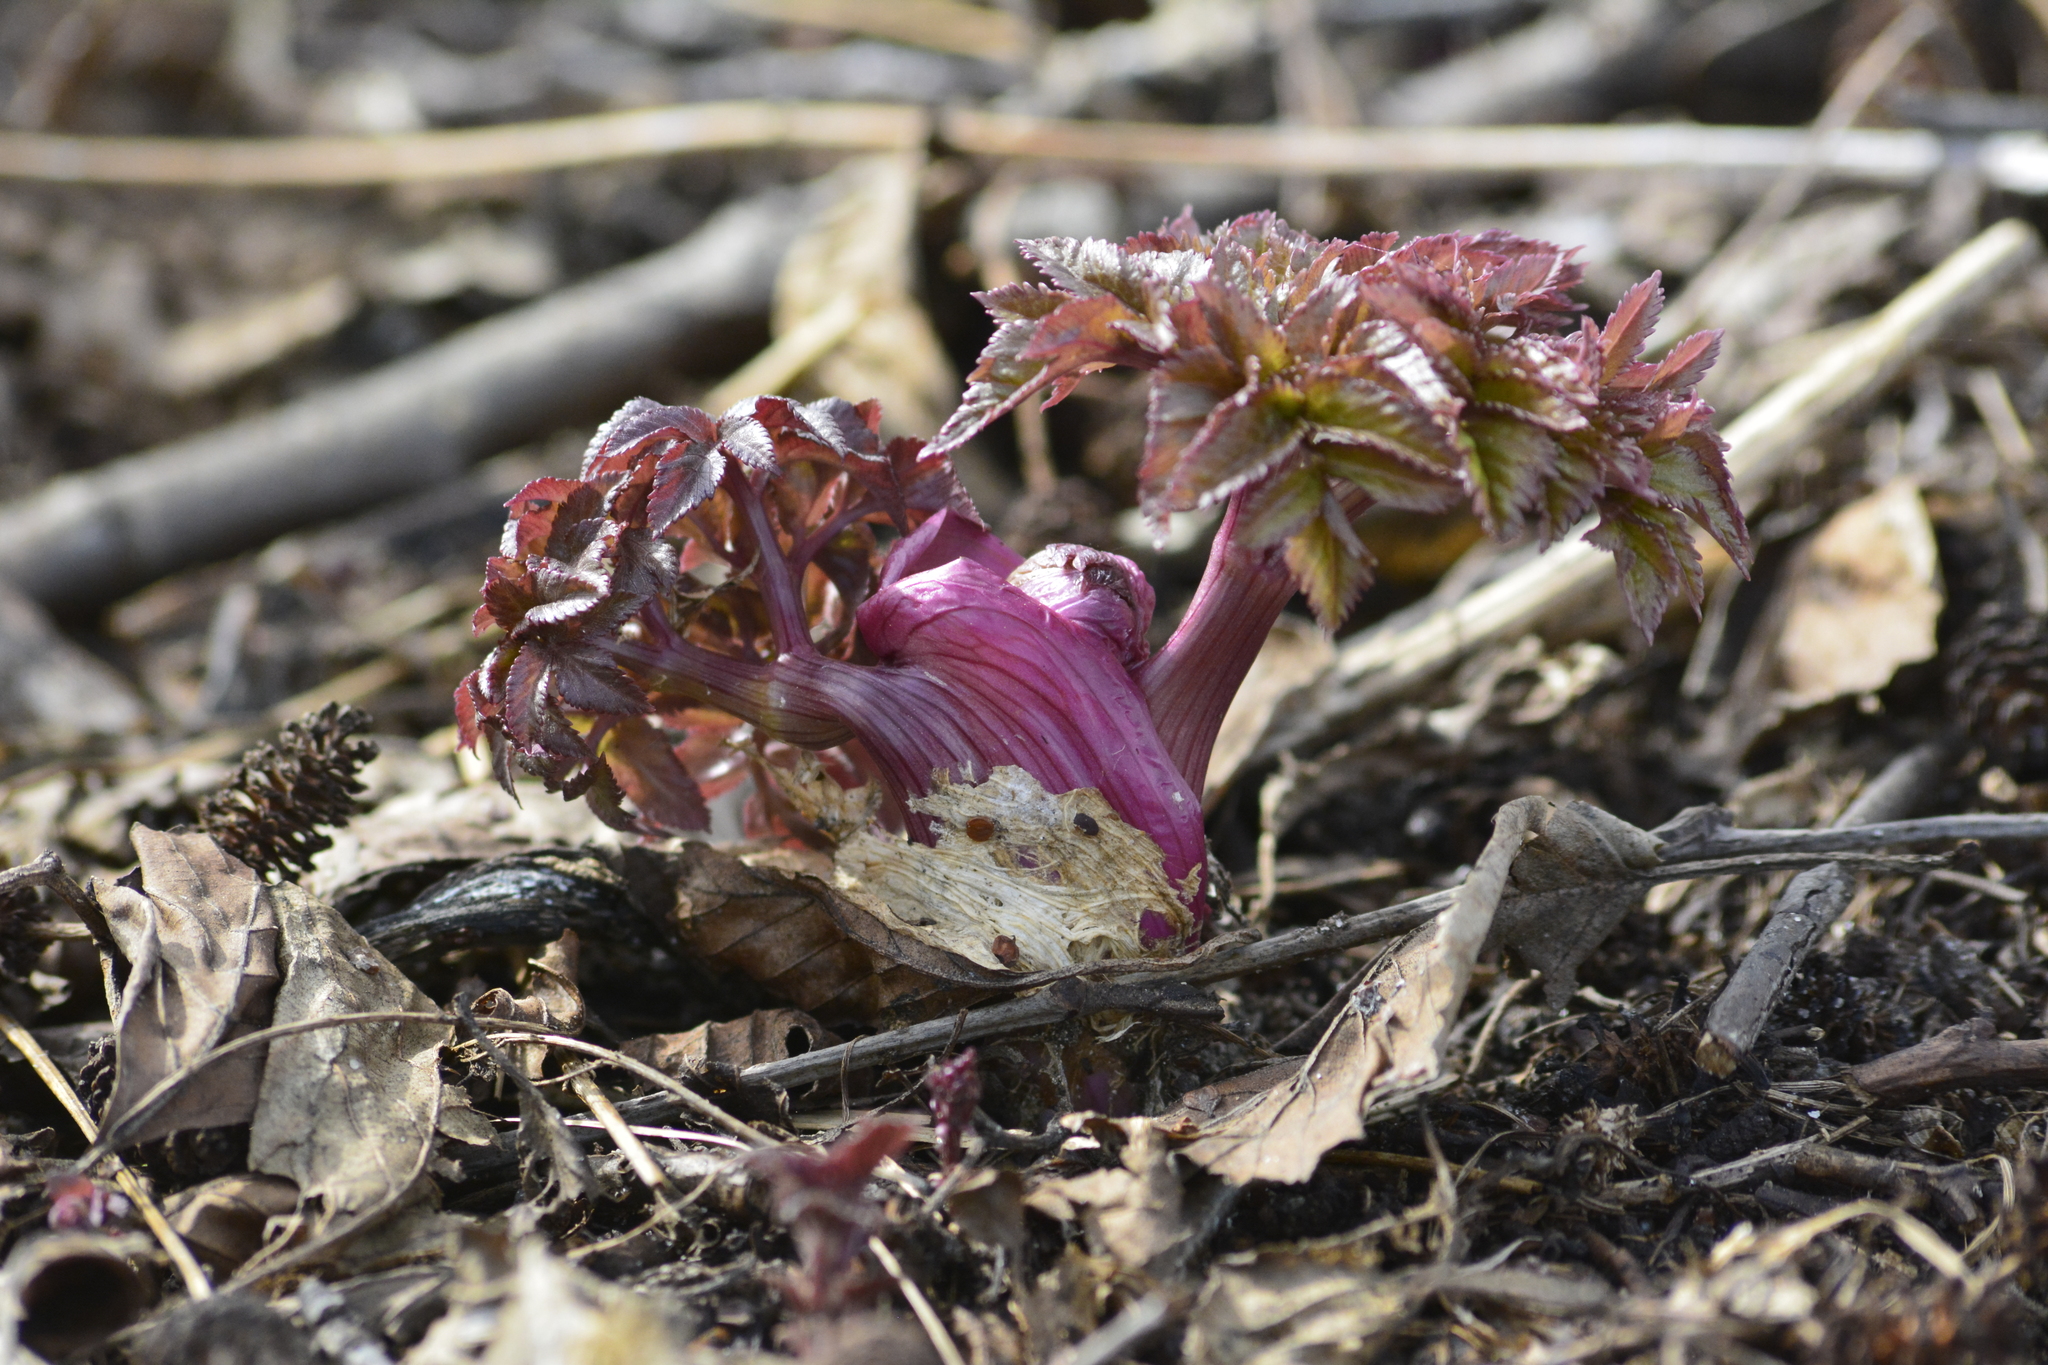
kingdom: Plantae
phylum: Tracheophyta
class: Magnoliopsida
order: Apiales
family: Apiaceae
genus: Angelica
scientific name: Angelica archangelica
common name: Garden angelica
